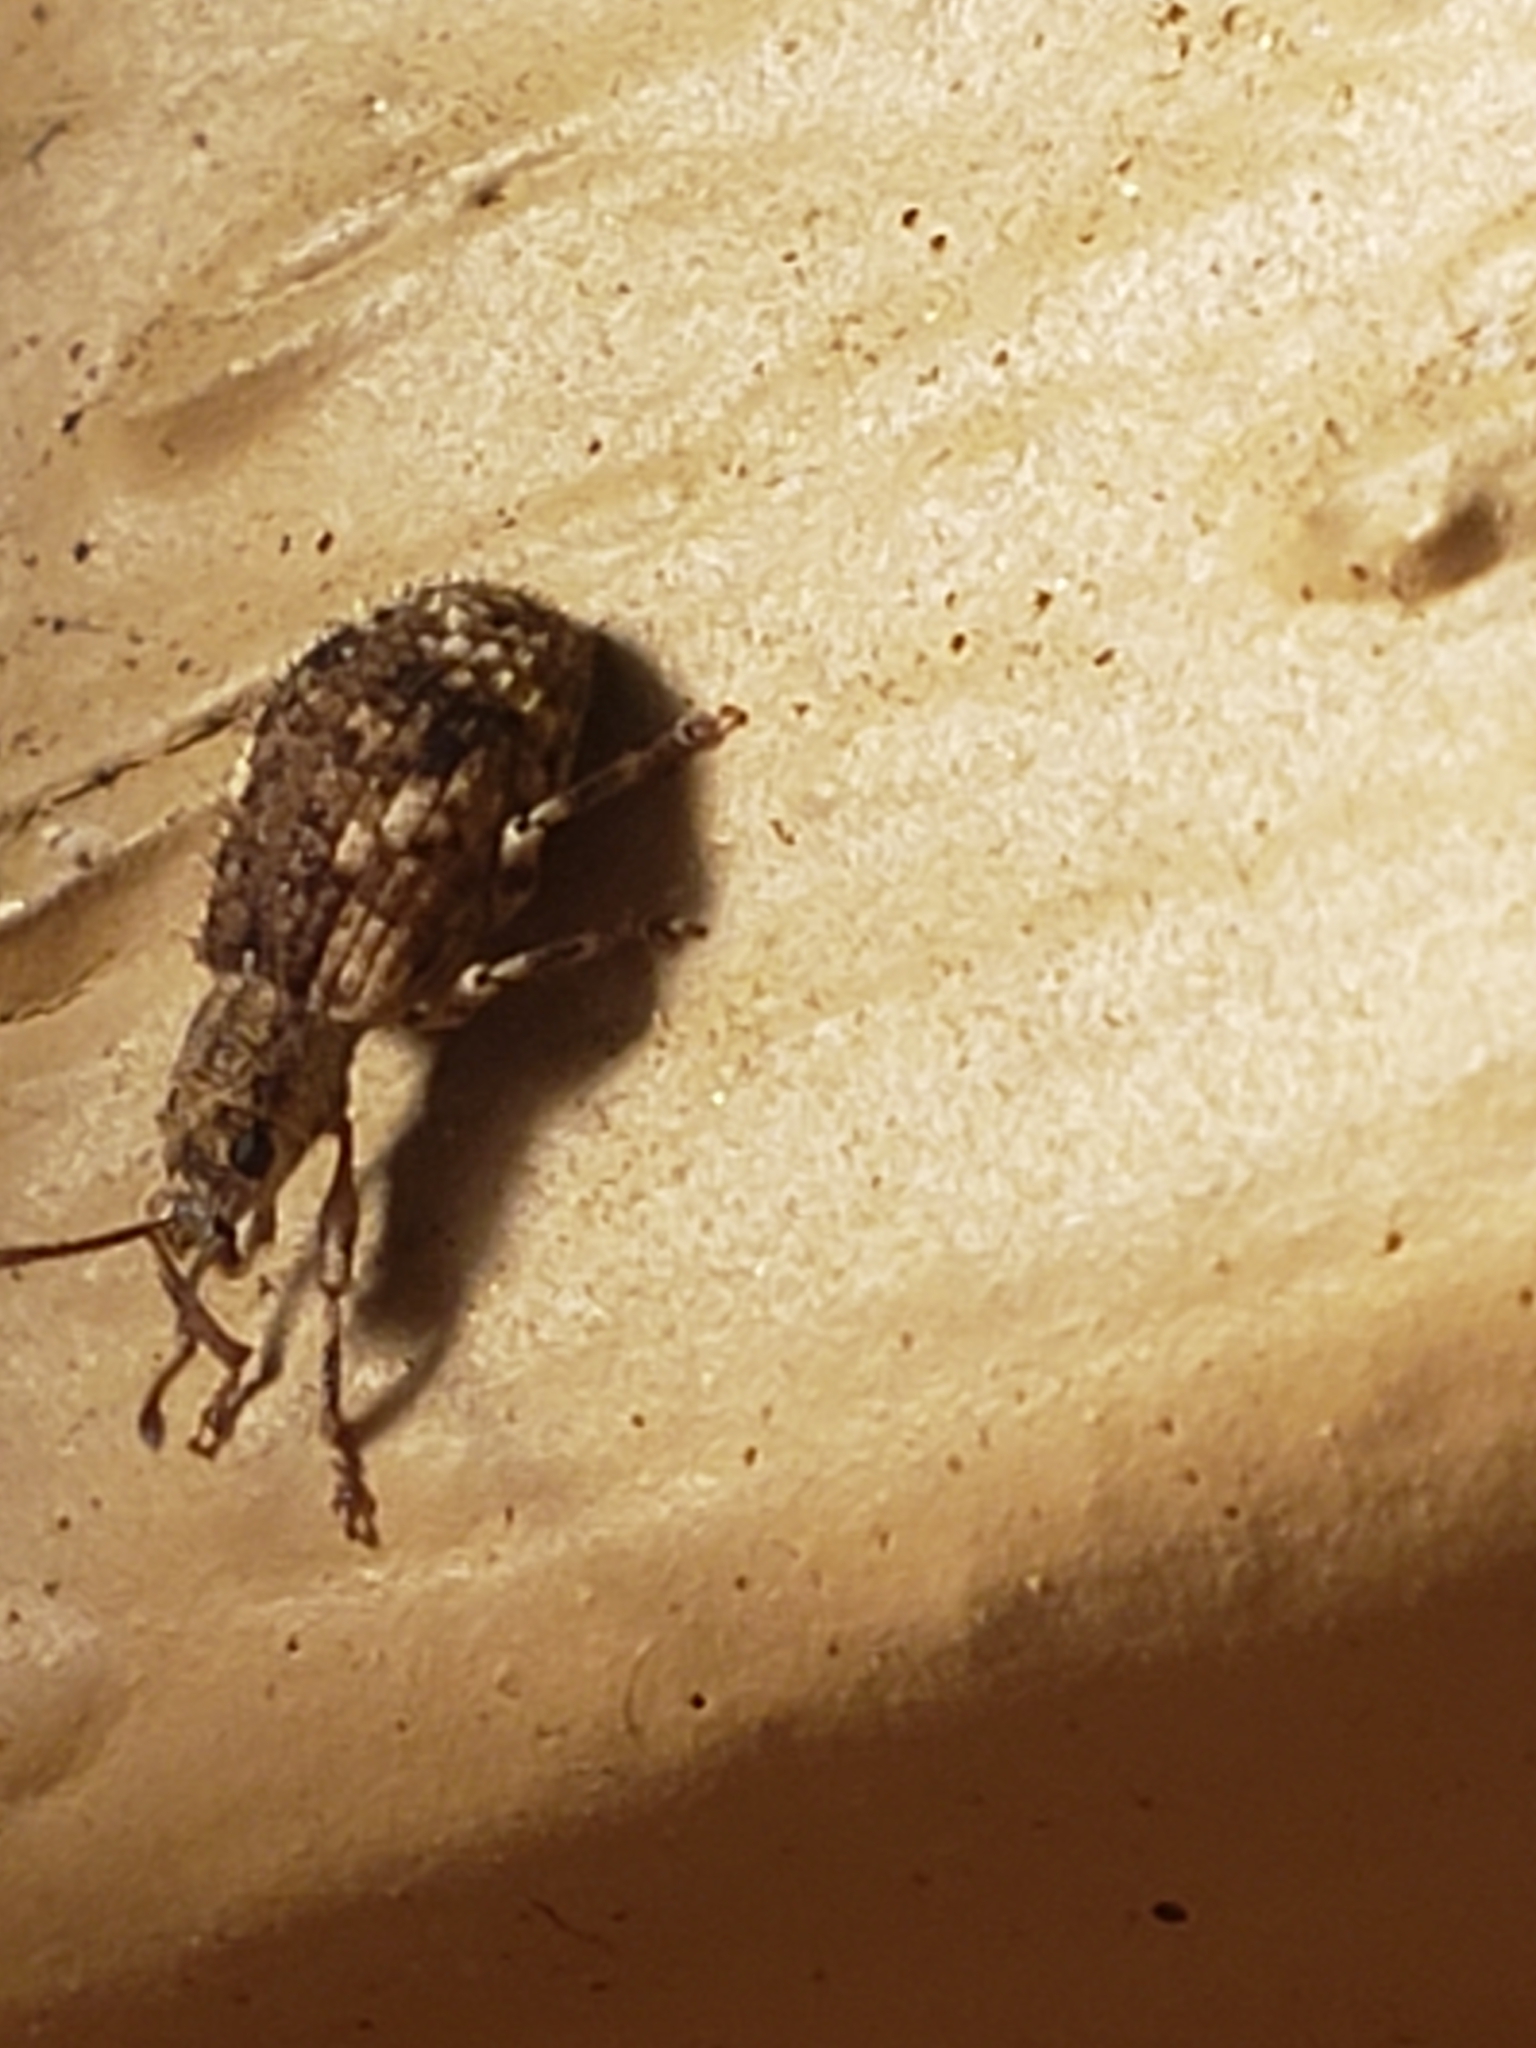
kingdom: Animalia
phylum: Arthropoda
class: Insecta
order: Coleoptera
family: Curculionidae
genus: Pseudoedophrys
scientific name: Pseudoedophrys hilleri
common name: Weevil
